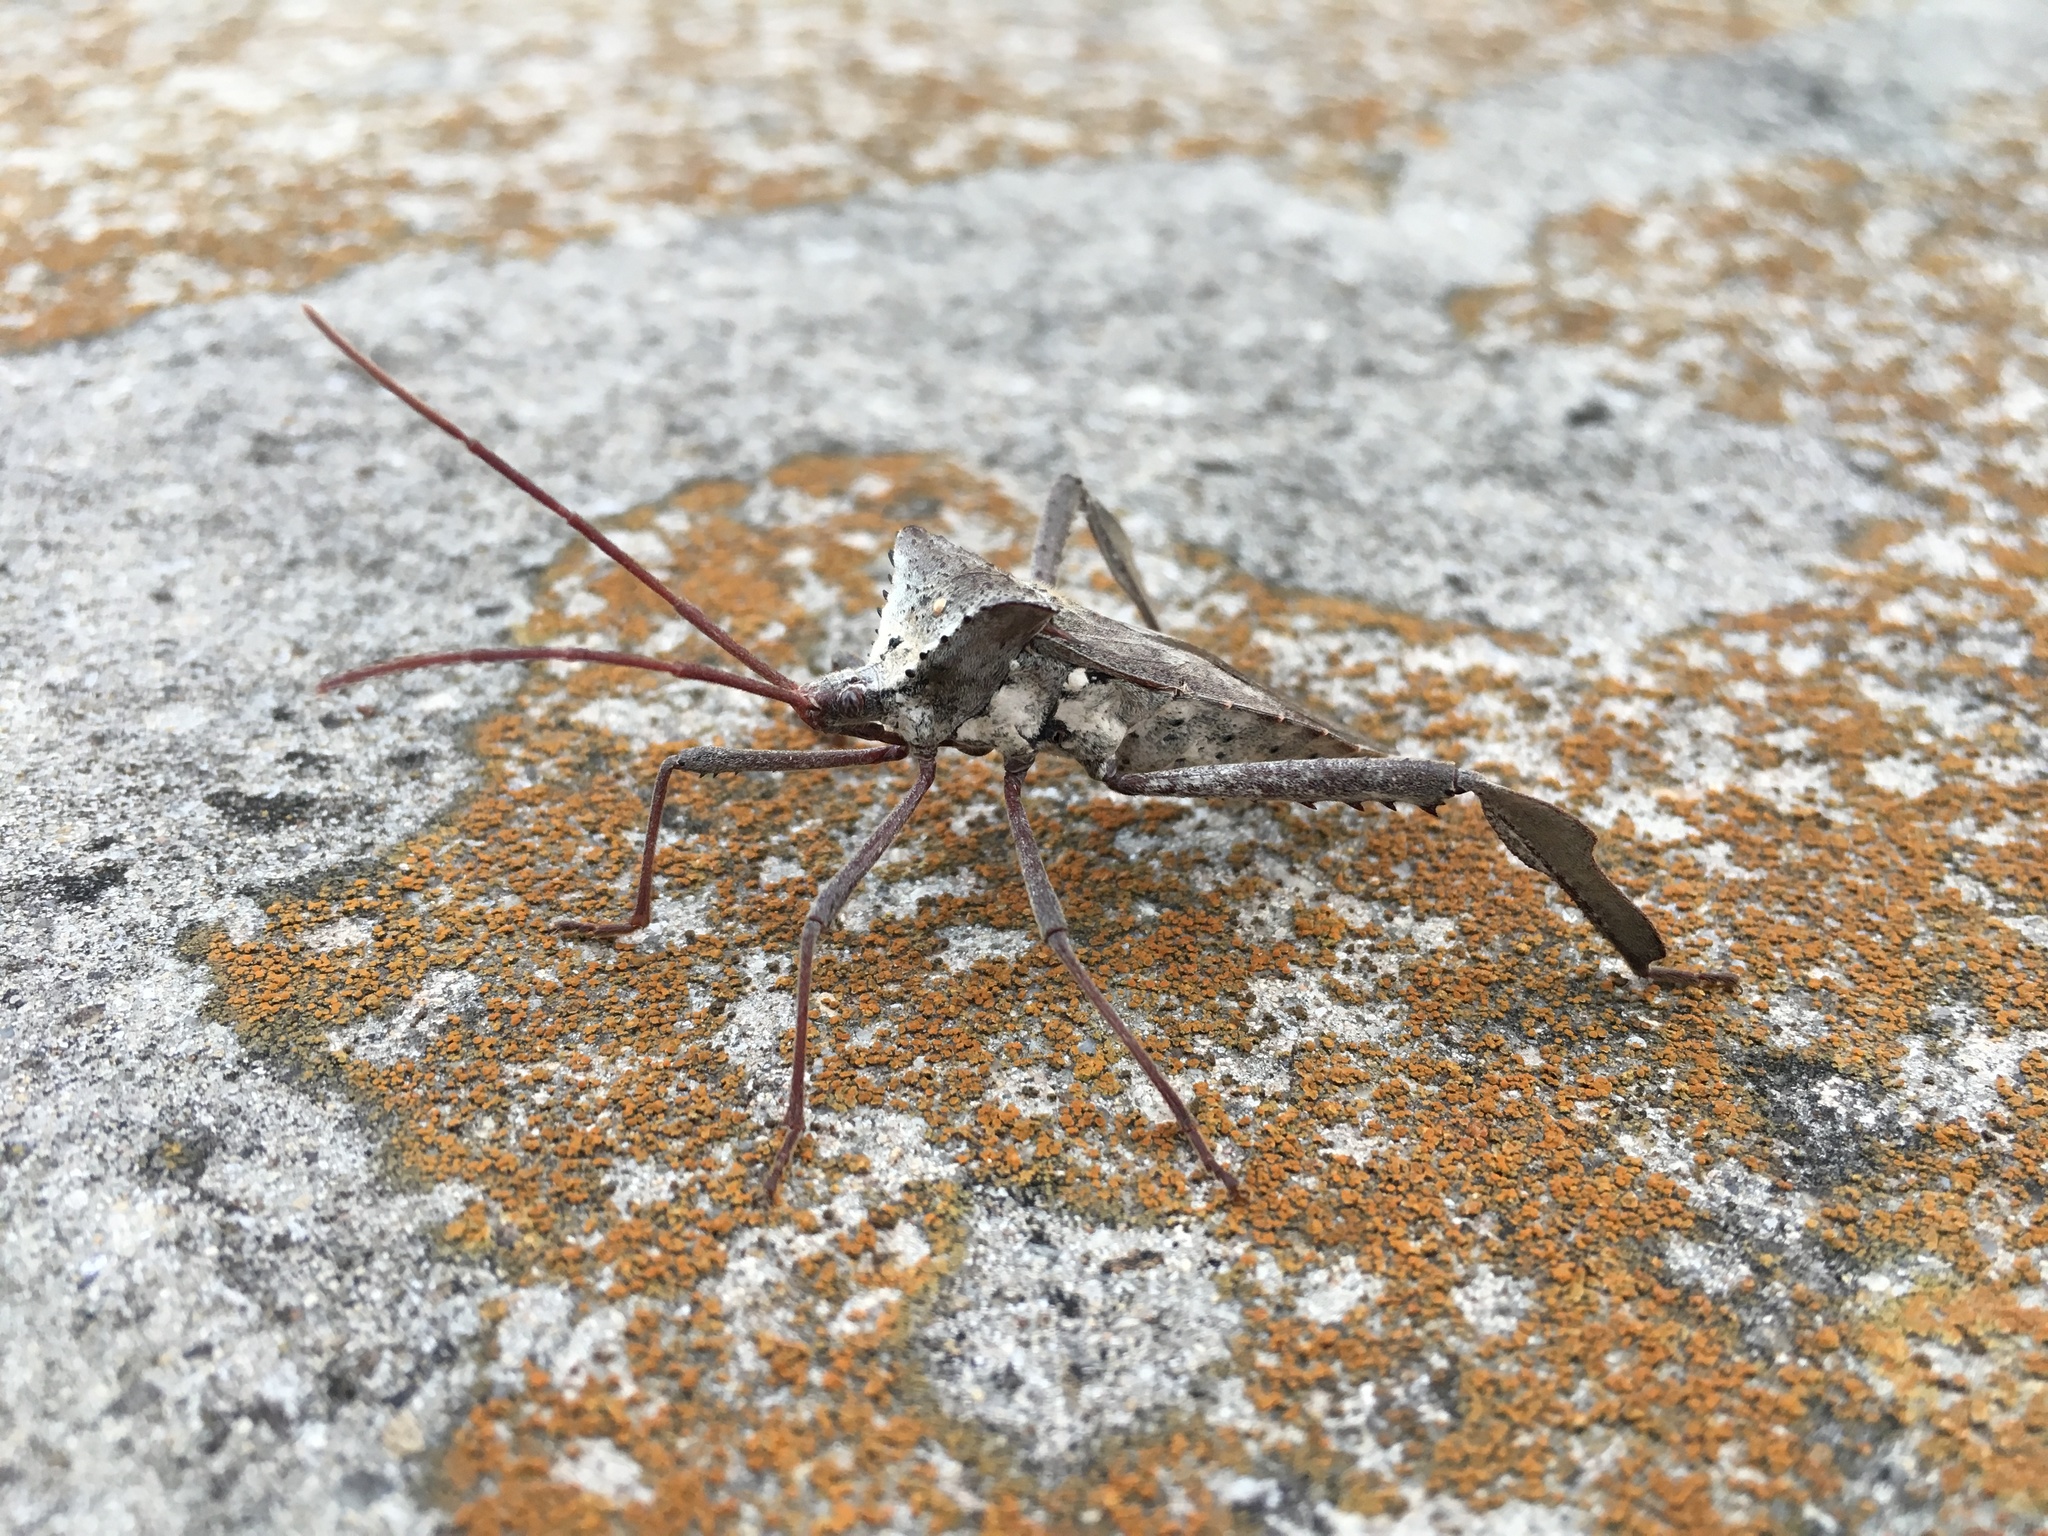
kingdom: Animalia
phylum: Arthropoda
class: Insecta
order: Hemiptera
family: Coreidae
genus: Acanthocephala
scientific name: Acanthocephala declivis
